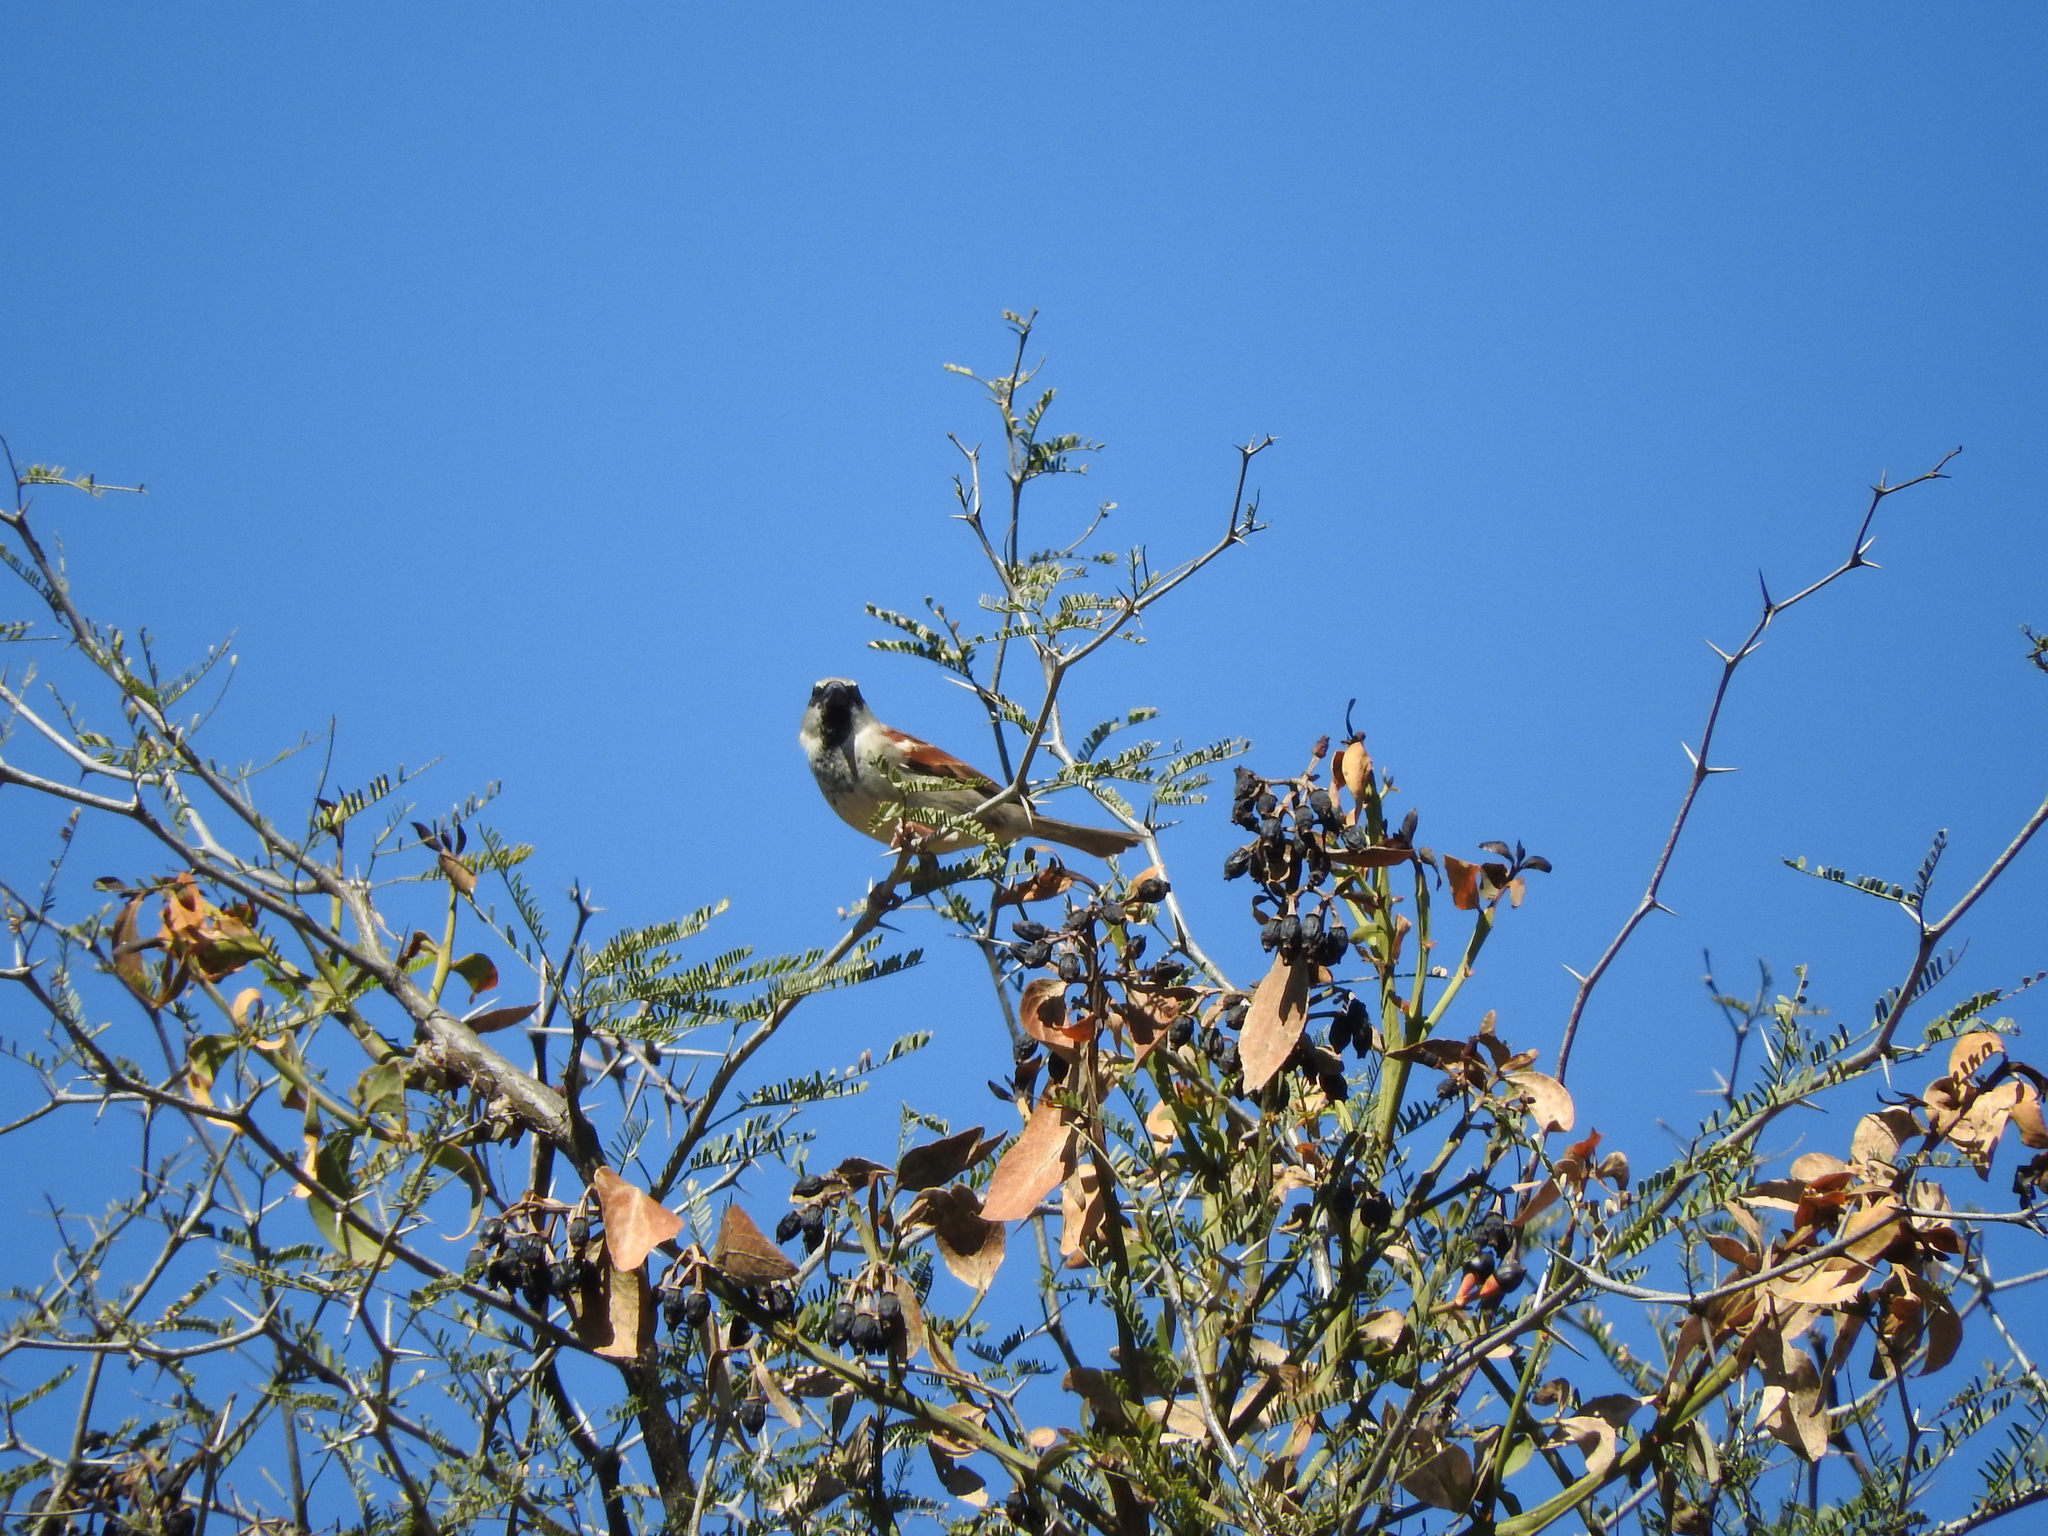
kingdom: Animalia
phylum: Chordata
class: Aves
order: Passeriformes
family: Passeridae
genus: Passer
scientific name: Passer domesticus
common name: House sparrow
